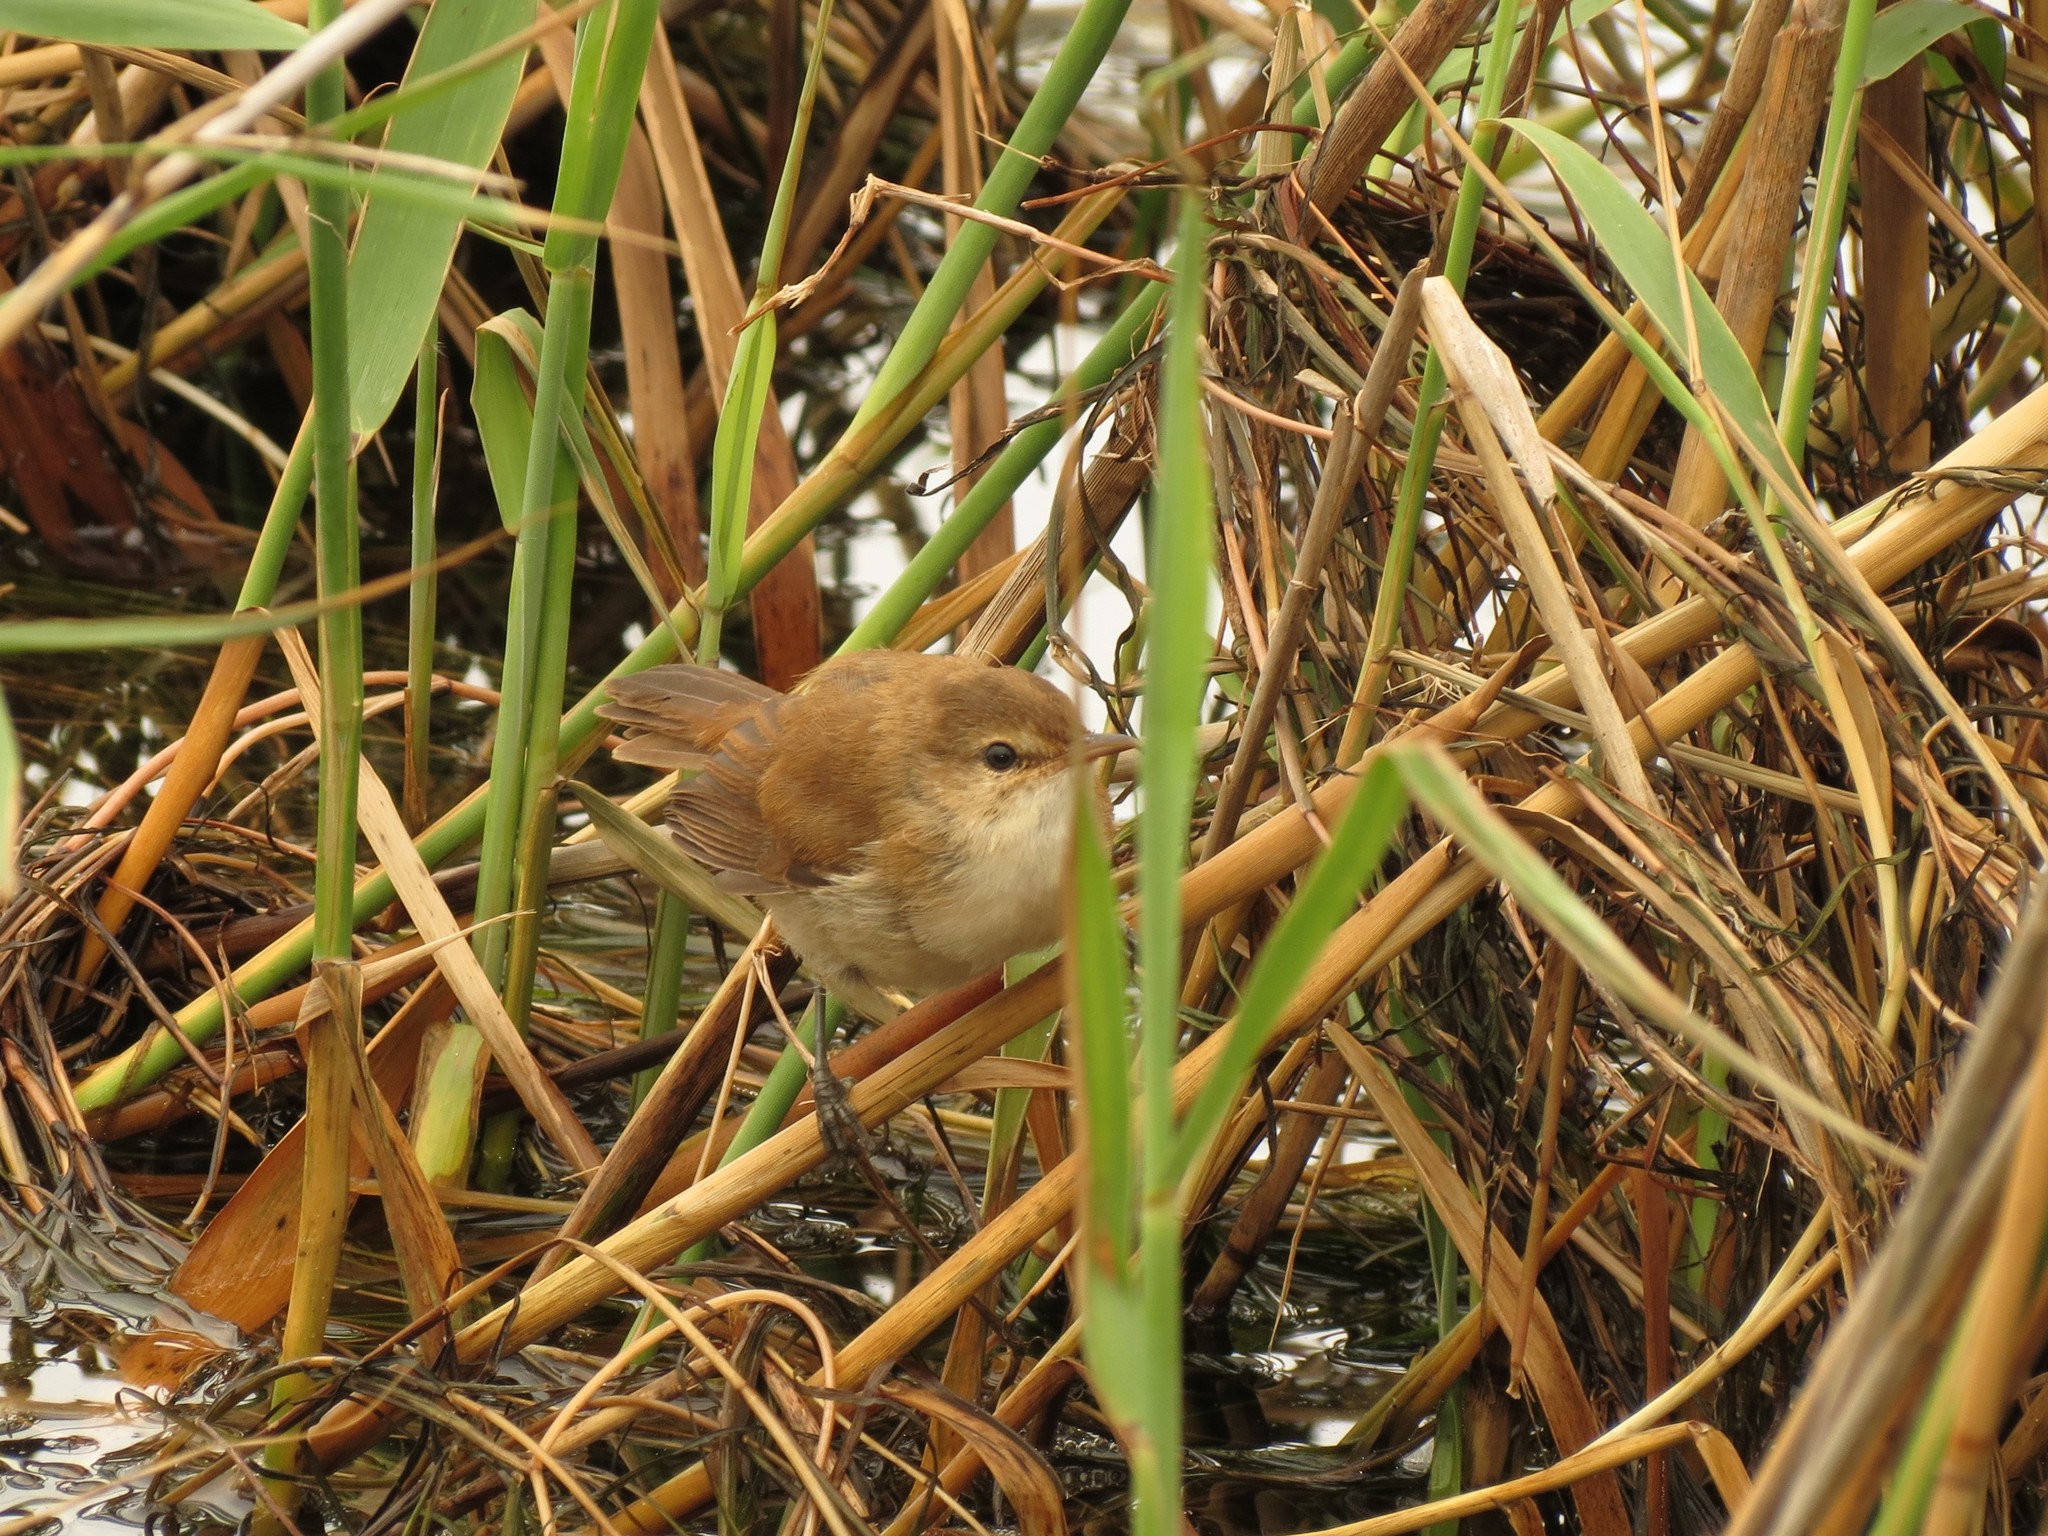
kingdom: Animalia
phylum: Chordata
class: Aves
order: Passeriformes
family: Acrocephalidae
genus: Acrocephalus
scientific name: Acrocephalus gracilirostris
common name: Lesser swamp warbler
